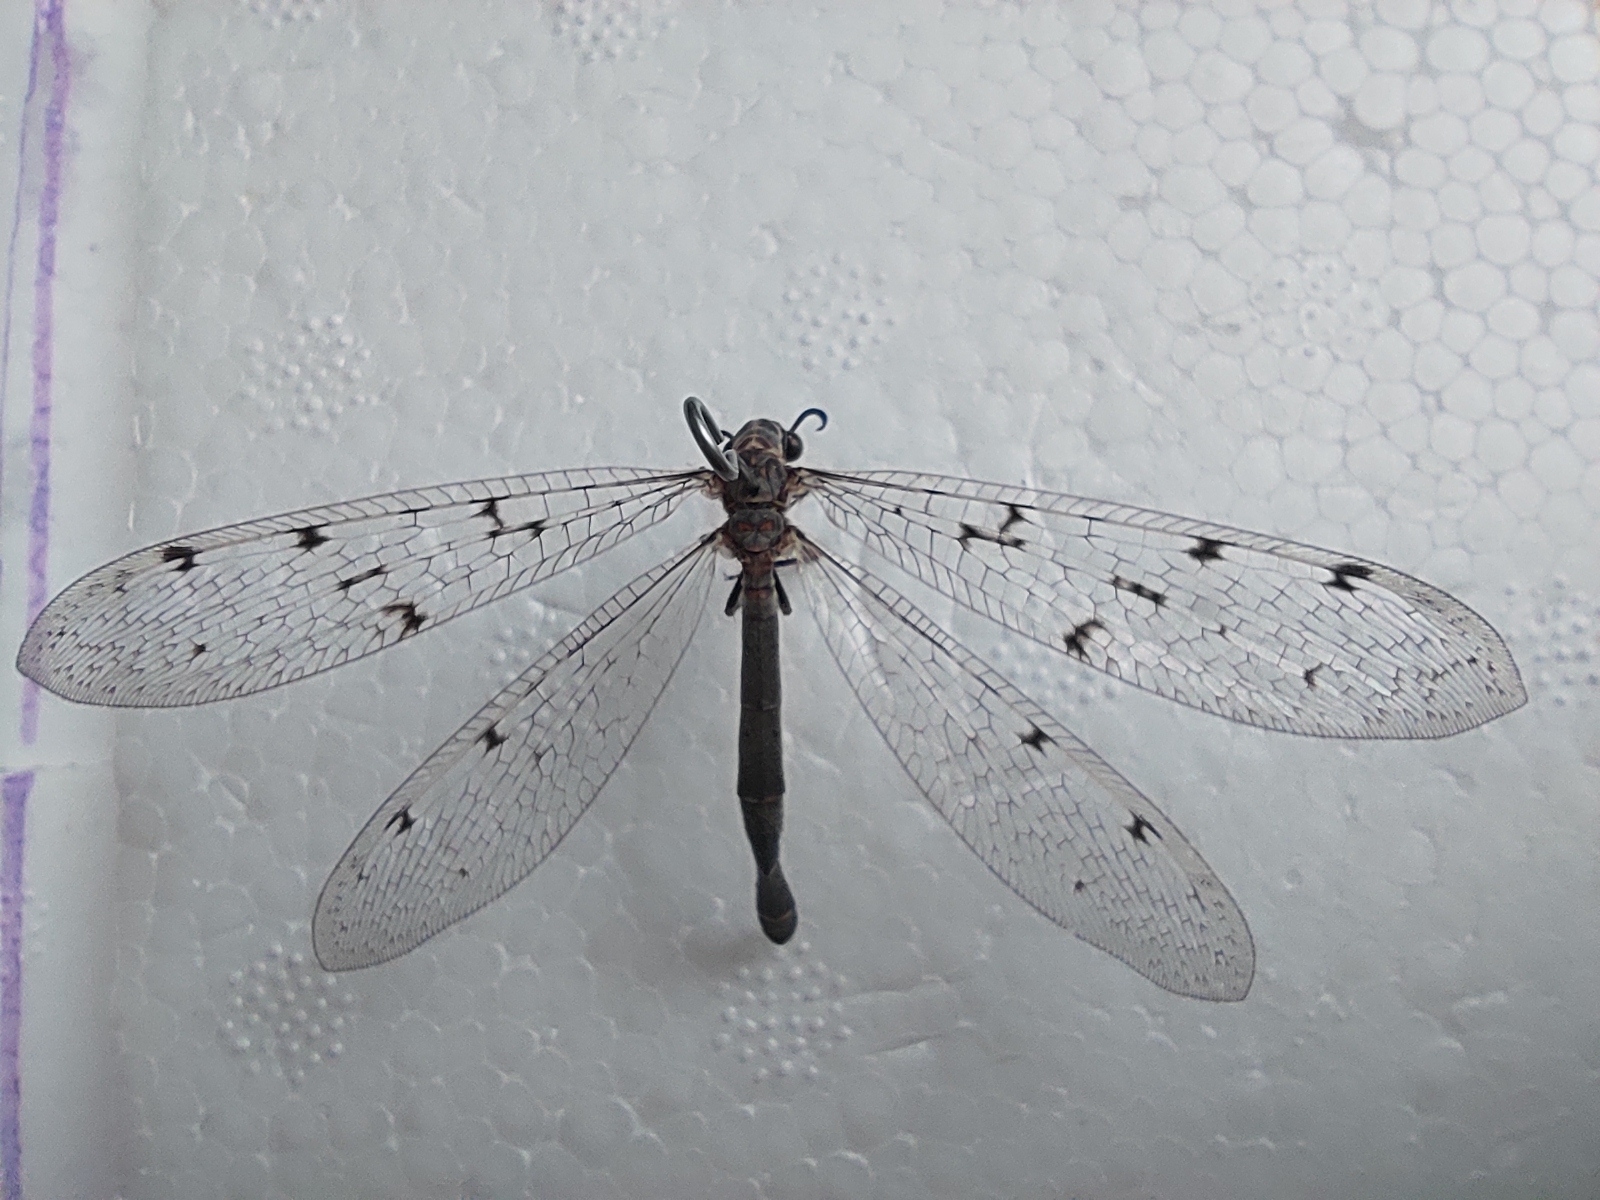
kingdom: Animalia
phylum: Arthropoda
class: Insecta
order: Neuroptera
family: Myrmeleontidae
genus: Euroleon
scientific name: Euroleon nostras
